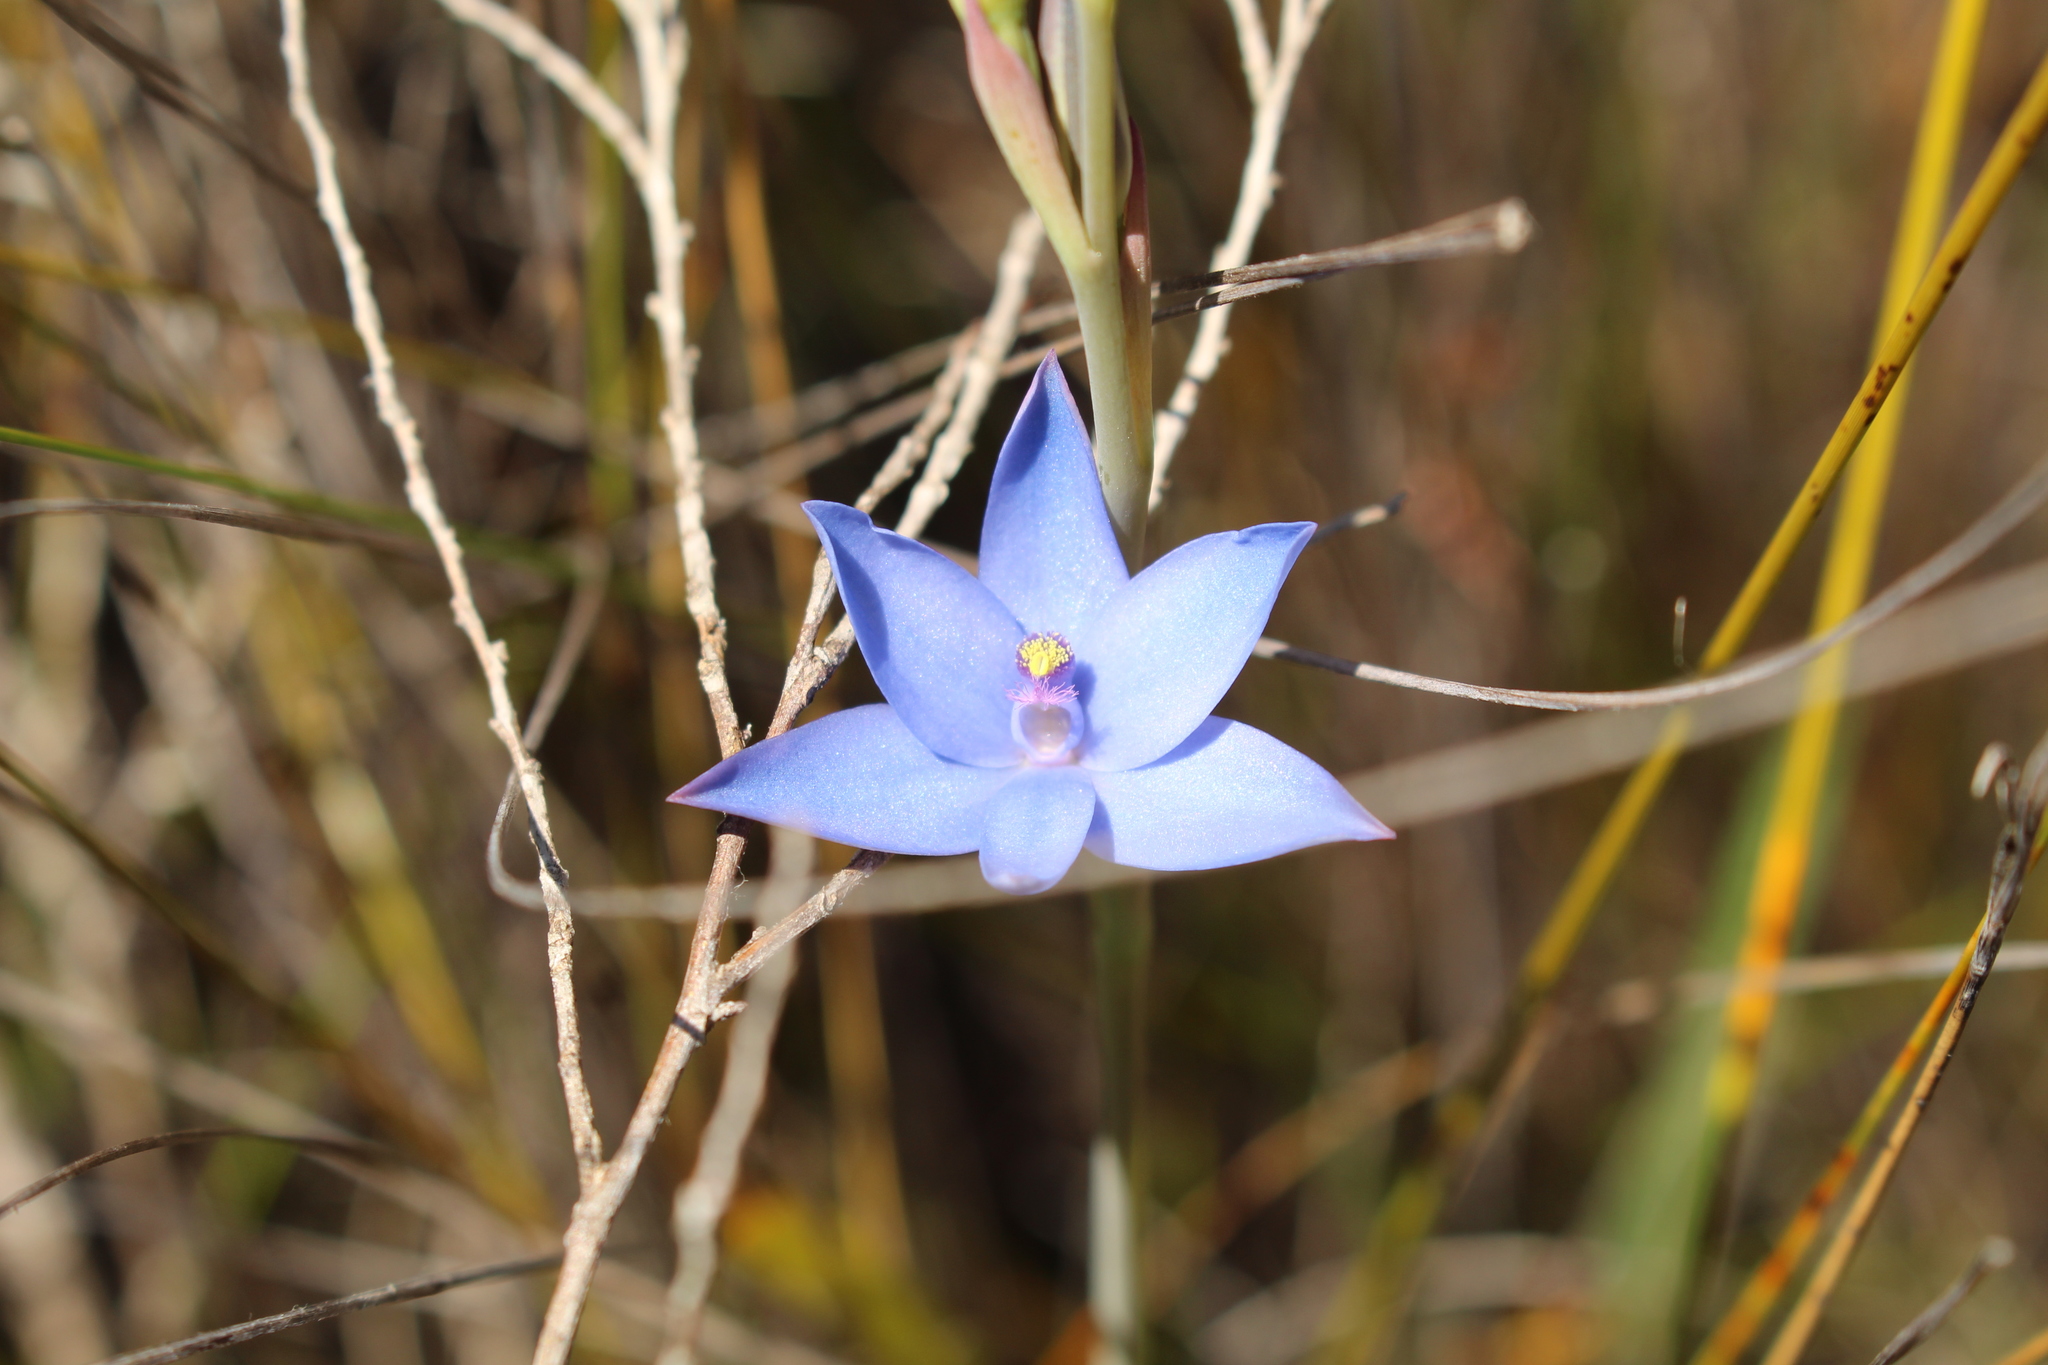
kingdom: Plantae
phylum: Tracheophyta
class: Liliopsida
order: Asparagales
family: Orchidaceae
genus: Thelymitra
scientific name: Thelymitra crinita
